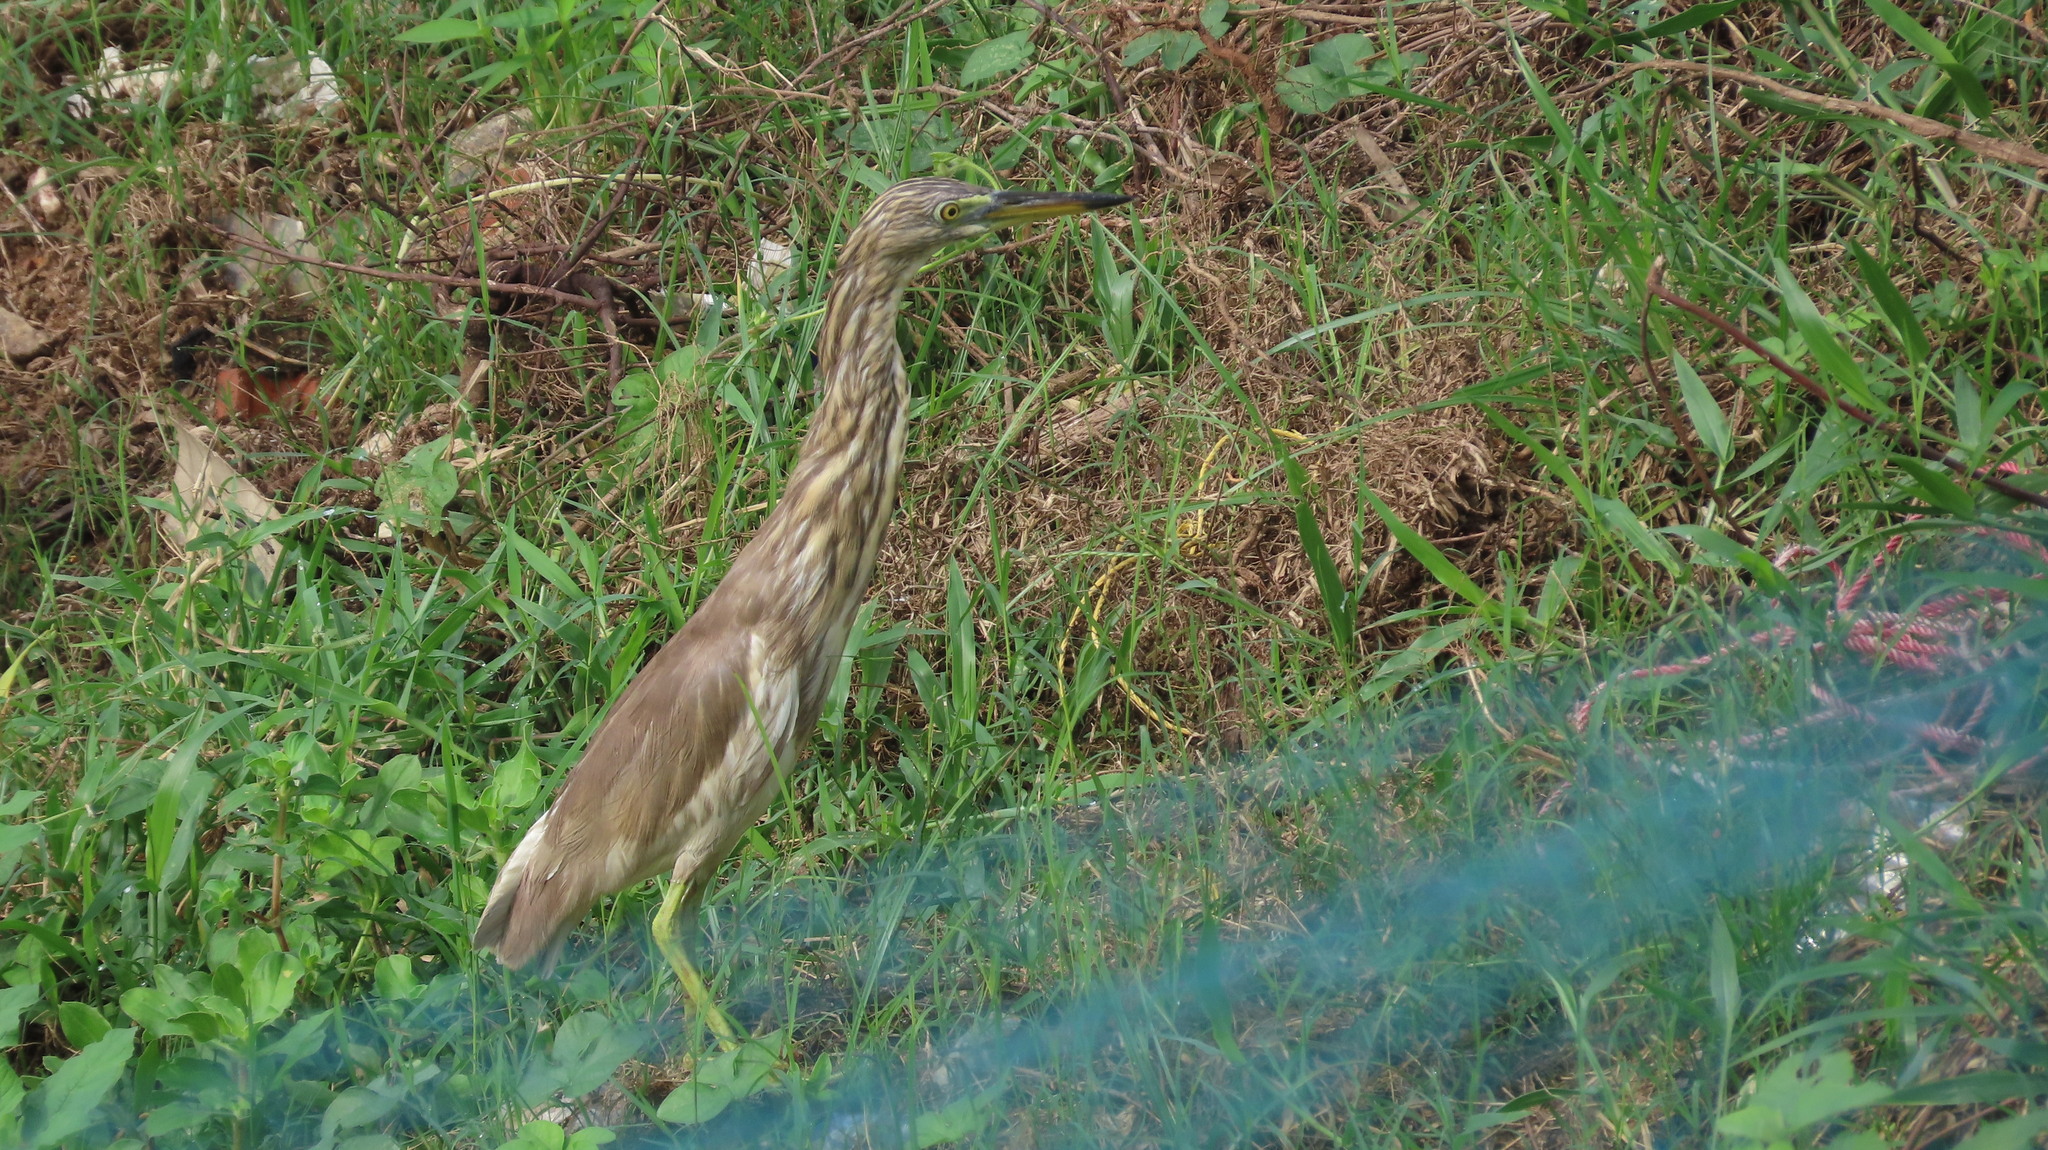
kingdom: Animalia
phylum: Chordata
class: Aves
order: Pelecaniformes
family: Ardeidae
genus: Ardeola
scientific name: Ardeola grayii
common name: Indian pond heron
